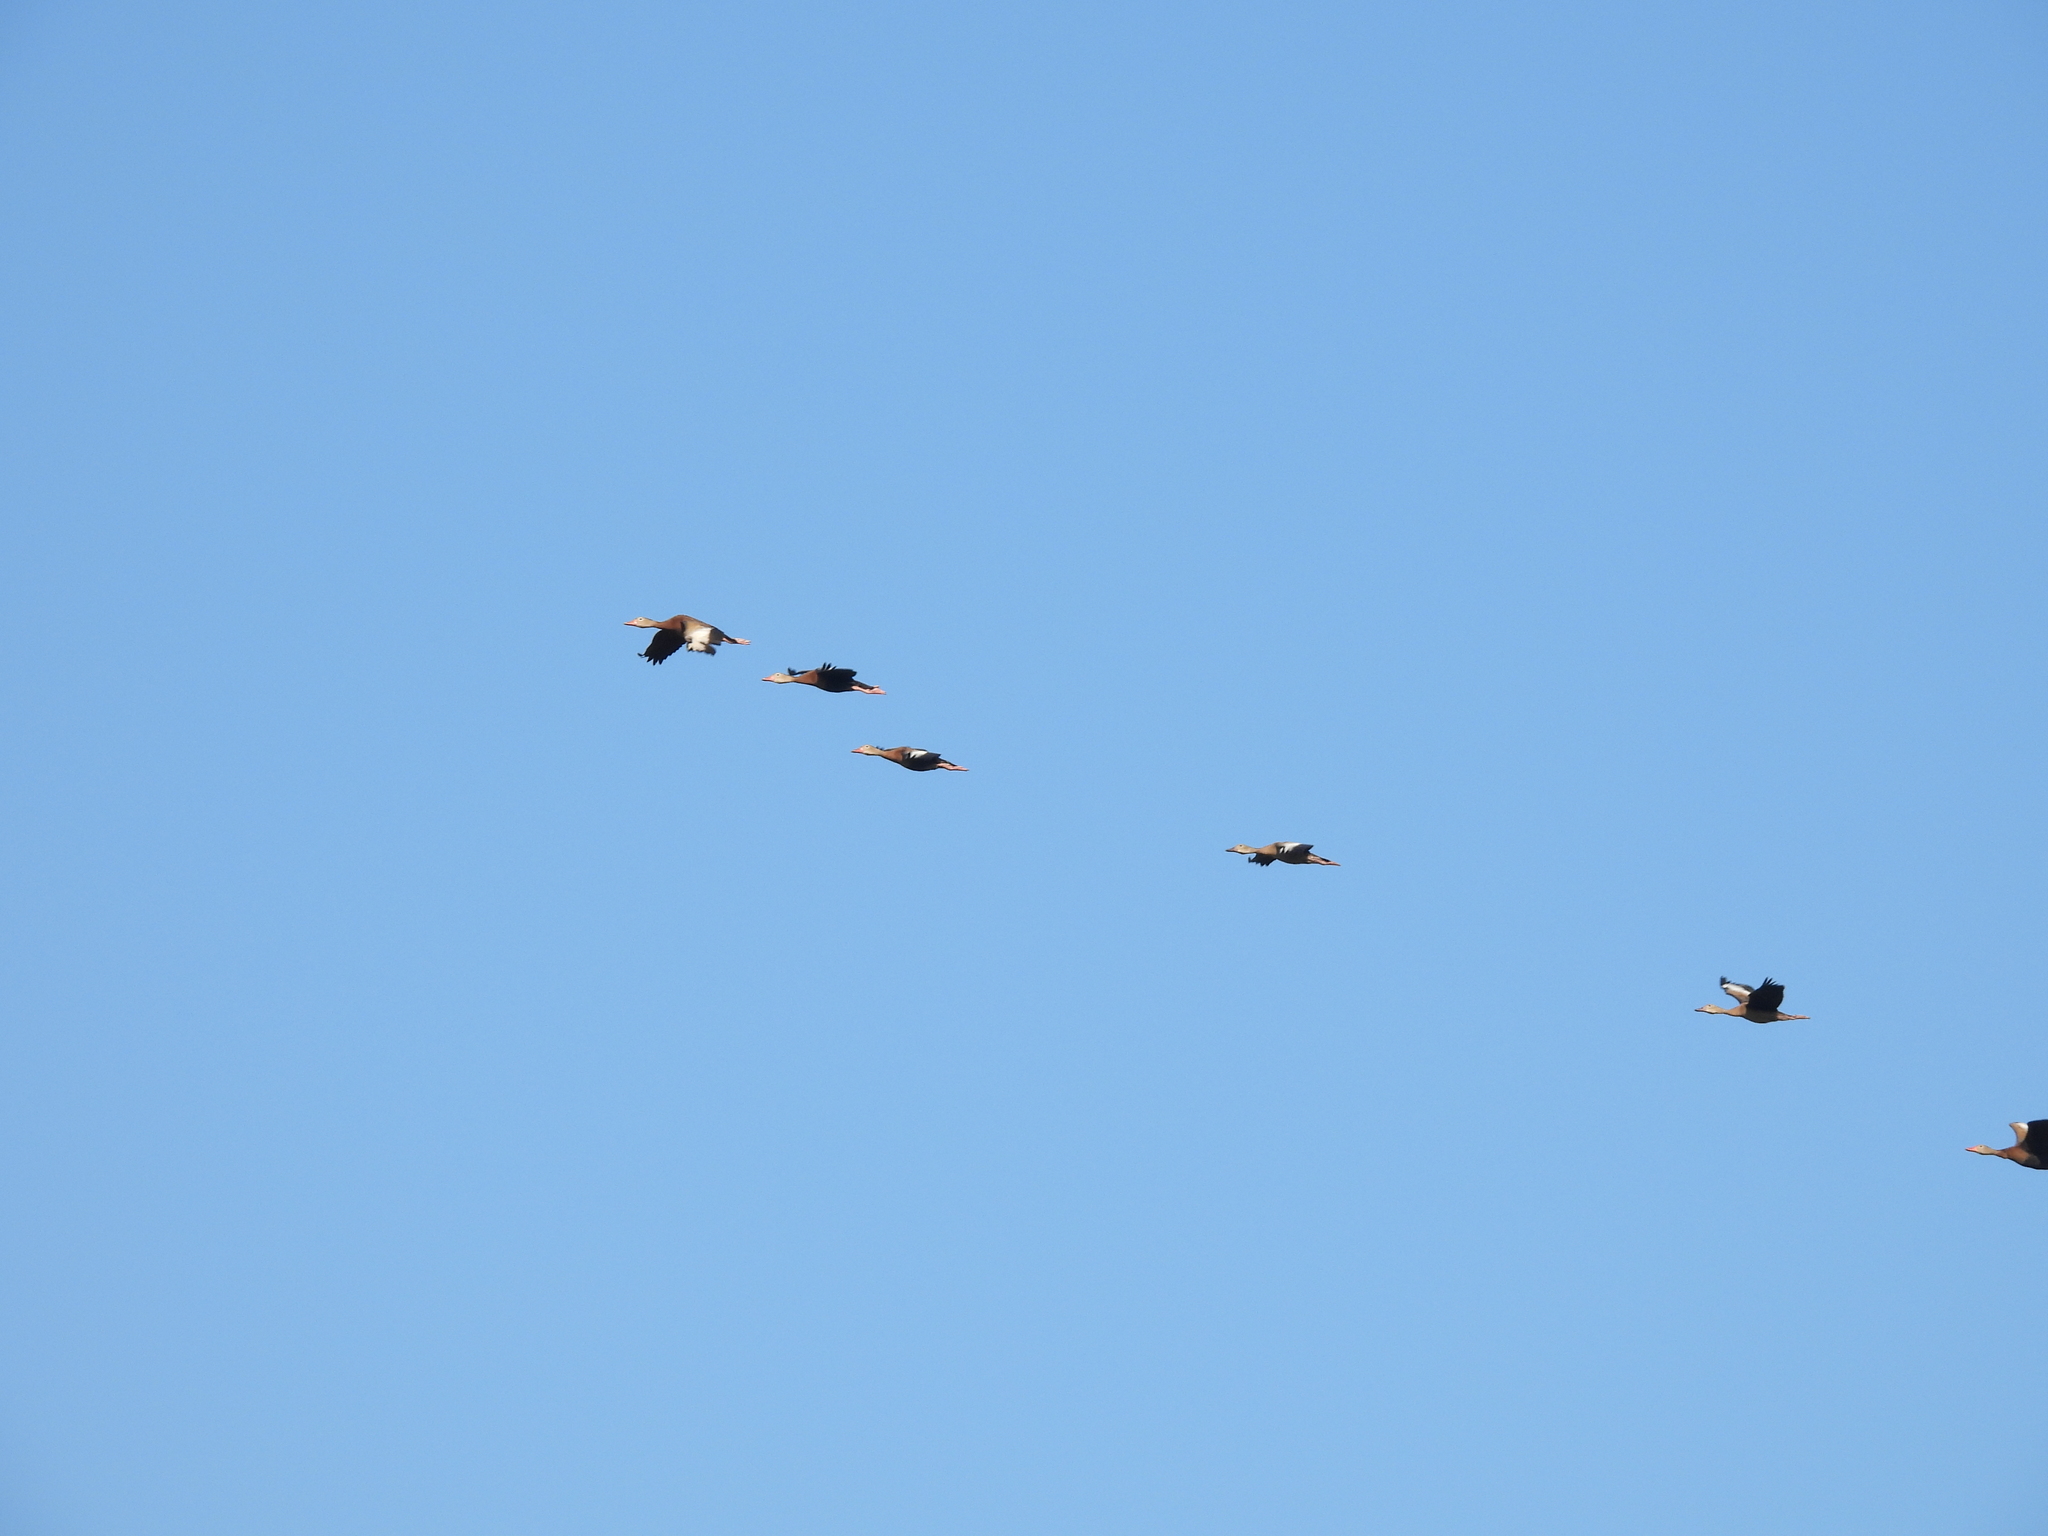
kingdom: Animalia
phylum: Chordata
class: Aves
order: Anseriformes
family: Anatidae
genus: Dendrocygna
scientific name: Dendrocygna autumnalis
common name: Black-bellied whistling duck
